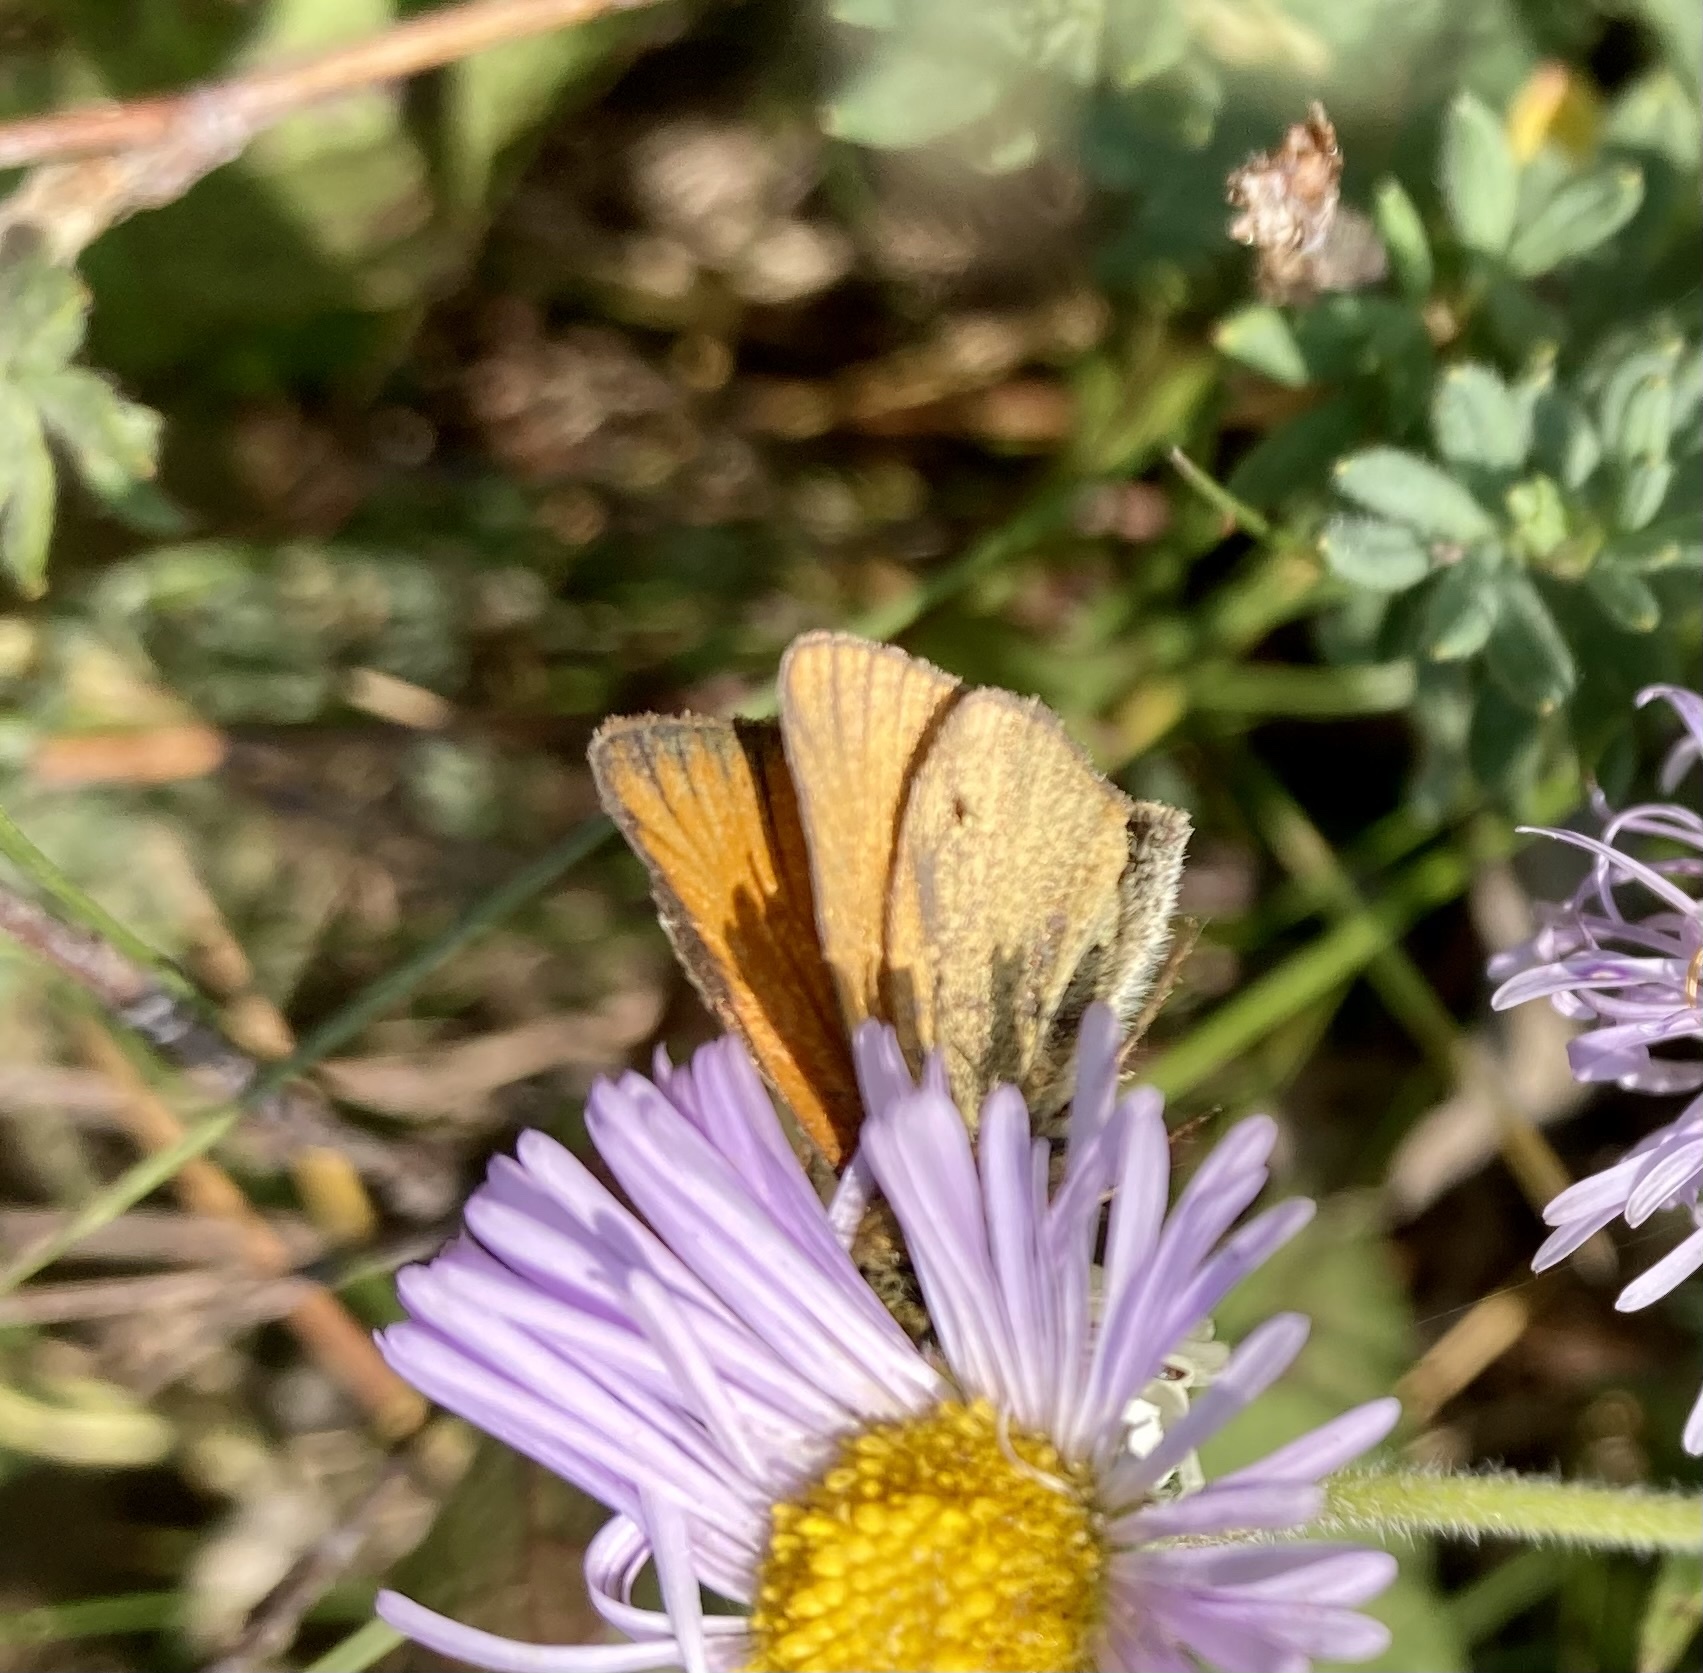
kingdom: Animalia
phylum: Arthropoda
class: Insecta
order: Lepidoptera
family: Hesperiidae
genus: Thymelicus
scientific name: Thymelicus lineola
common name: Essex skipper
